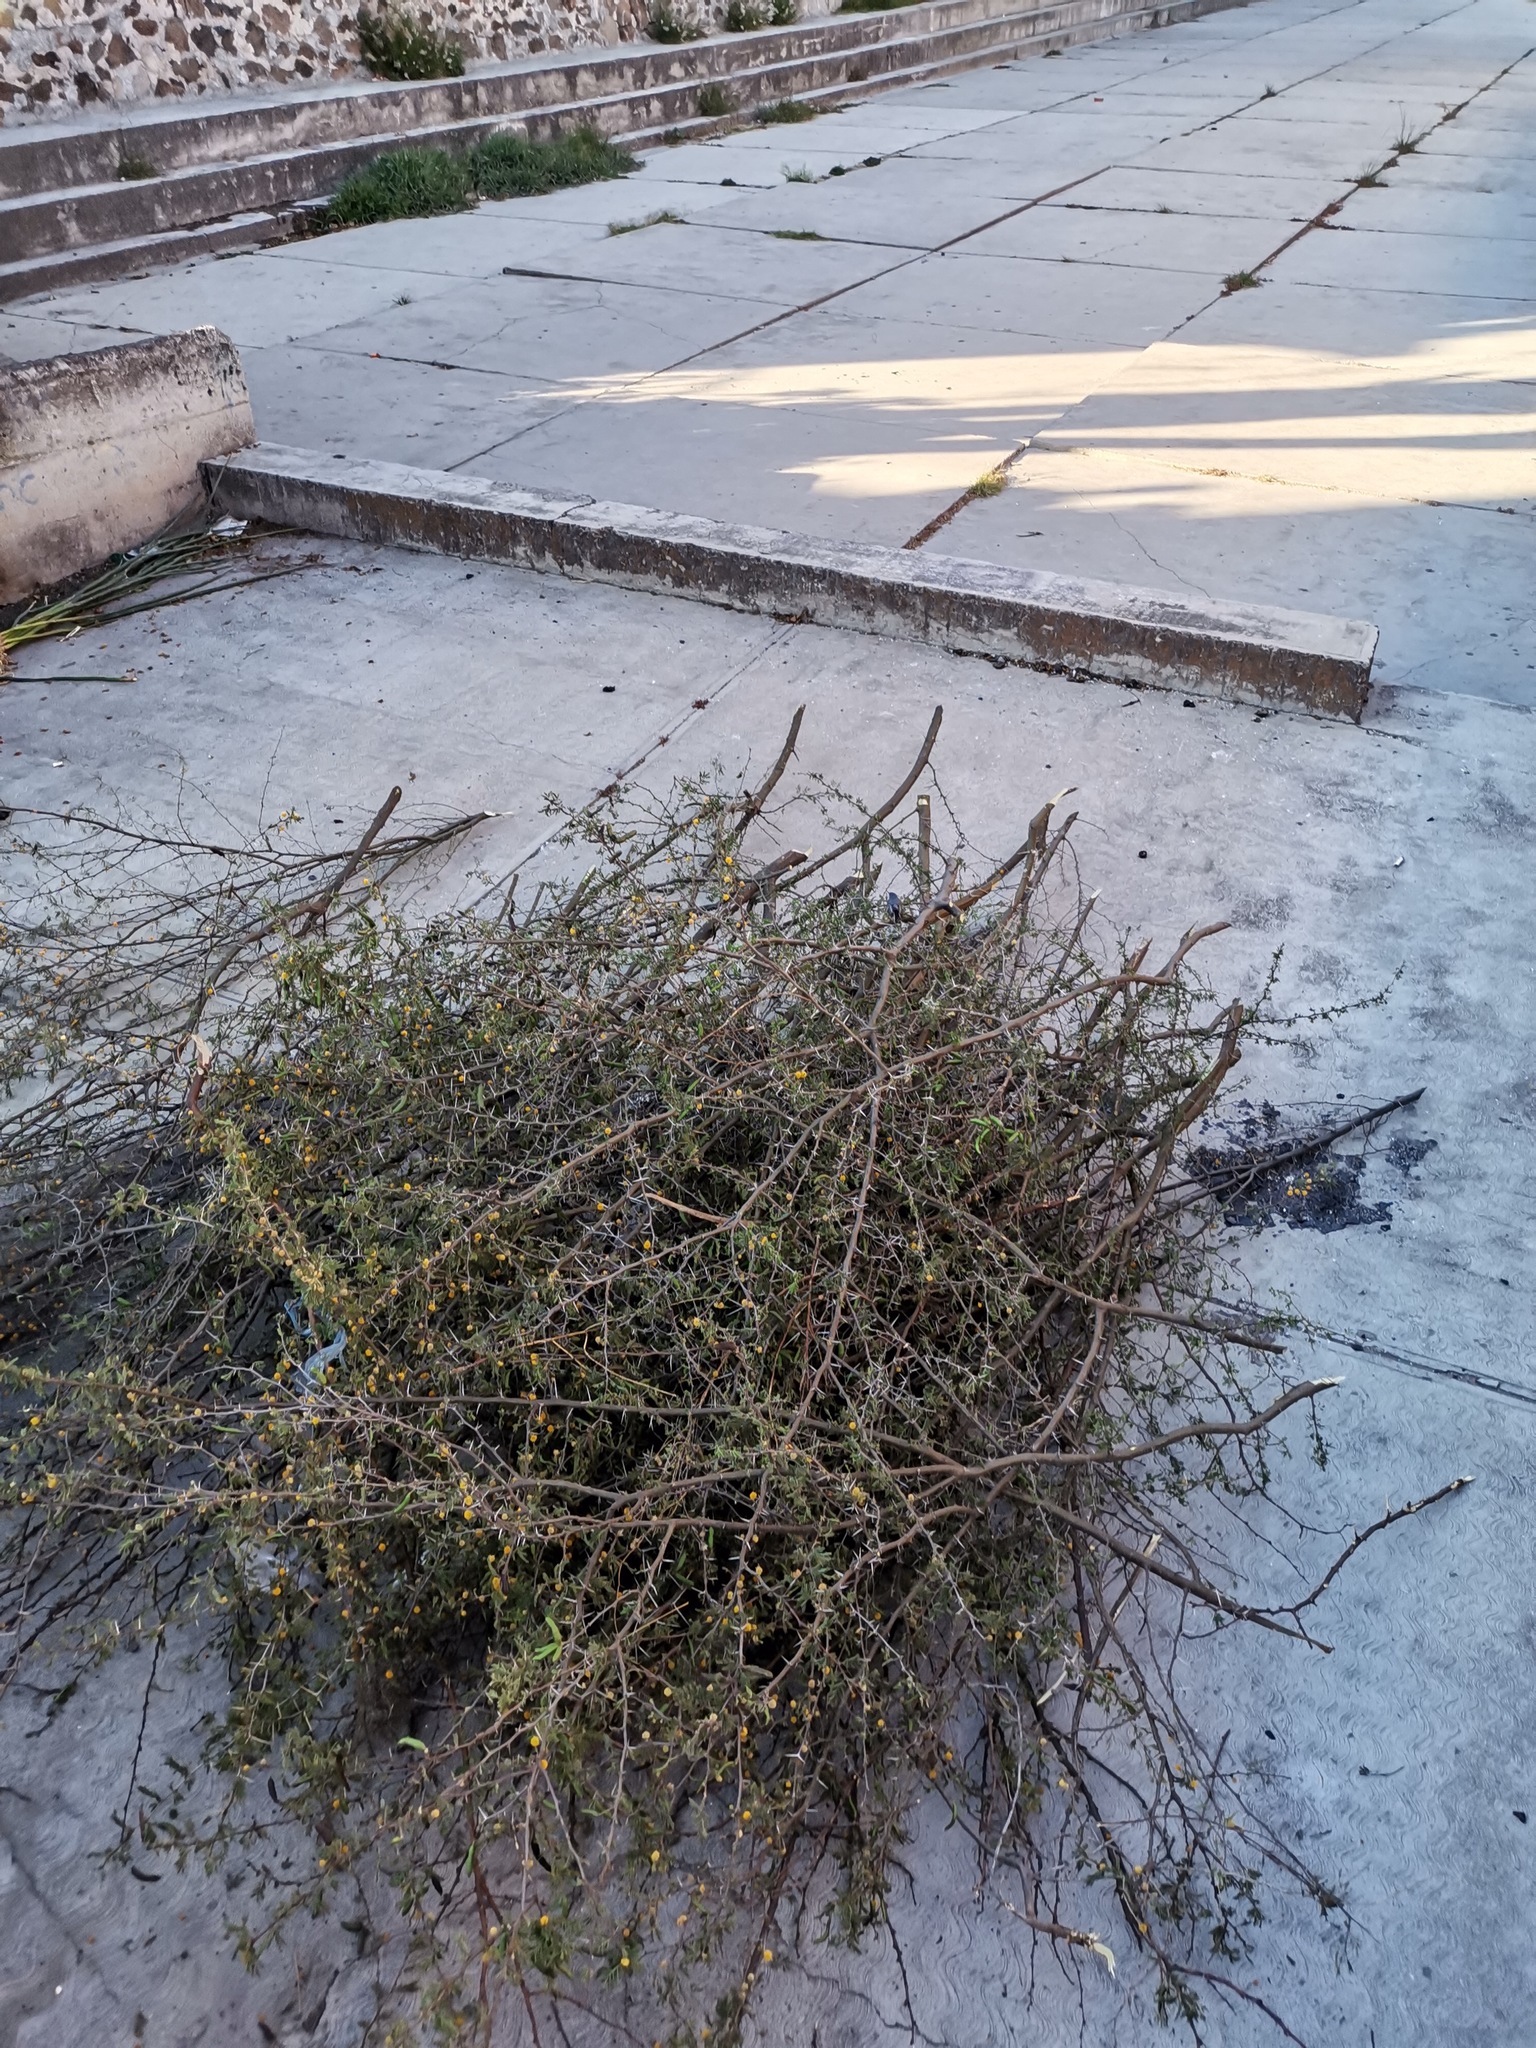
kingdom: Animalia
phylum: Chordata
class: Aves
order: Passeriformes
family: Polioptilidae
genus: Polioptila
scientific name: Polioptila caerulea
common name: Blue-gray gnatcatcher
